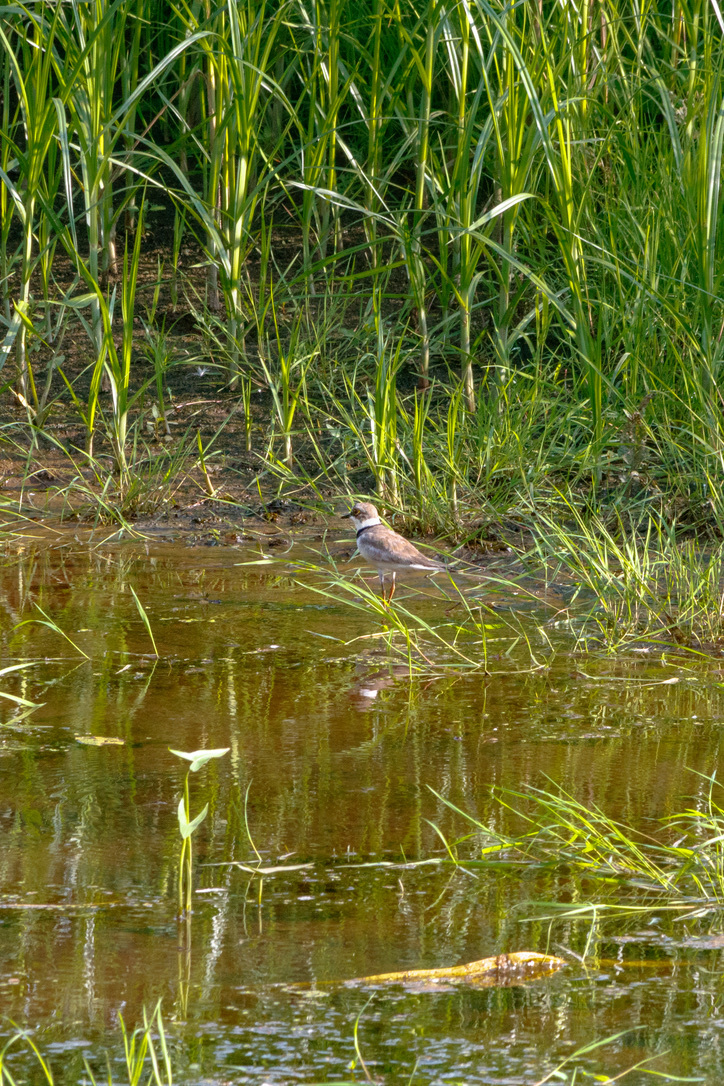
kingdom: Animalia
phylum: Chordata
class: Aves
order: Charadriiformes
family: Charadriidae
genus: Charadrius
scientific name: Charadrius dubius
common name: Little ringed plover
